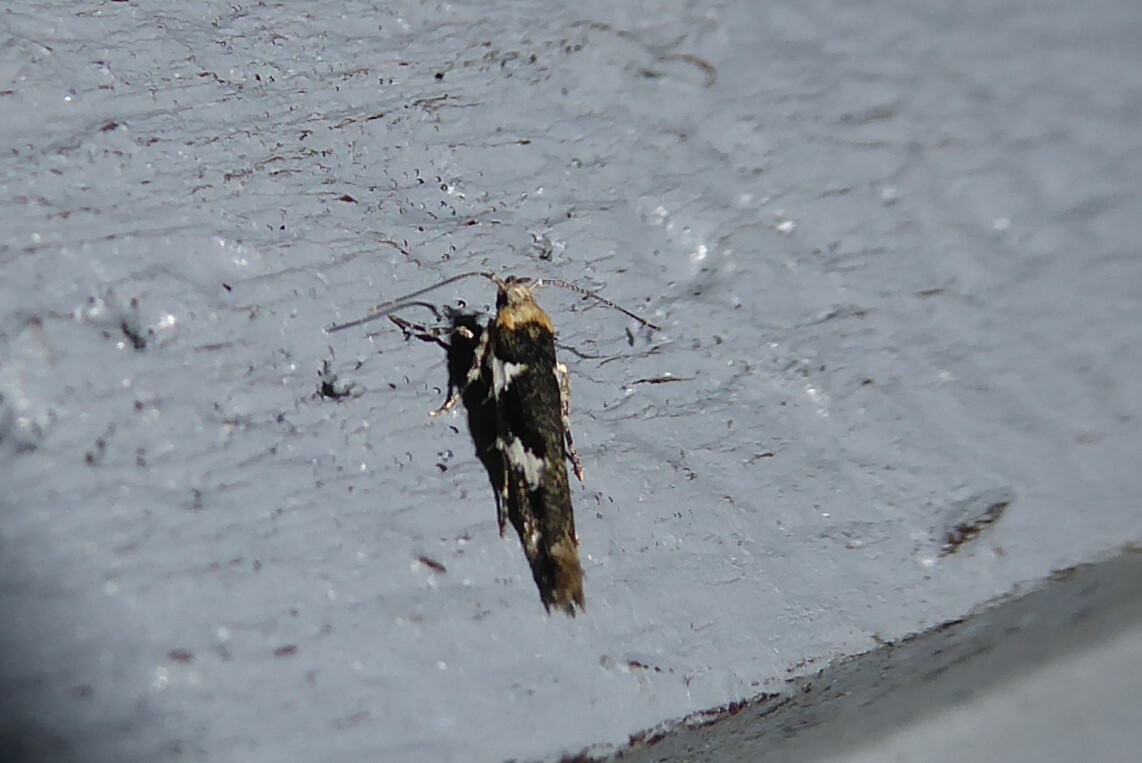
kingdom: Animalia
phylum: Arthropoda
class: Insecta
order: Lepidoptera
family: Cosmopterigidae
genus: Pyroderces
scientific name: Pyroderces deamatella
